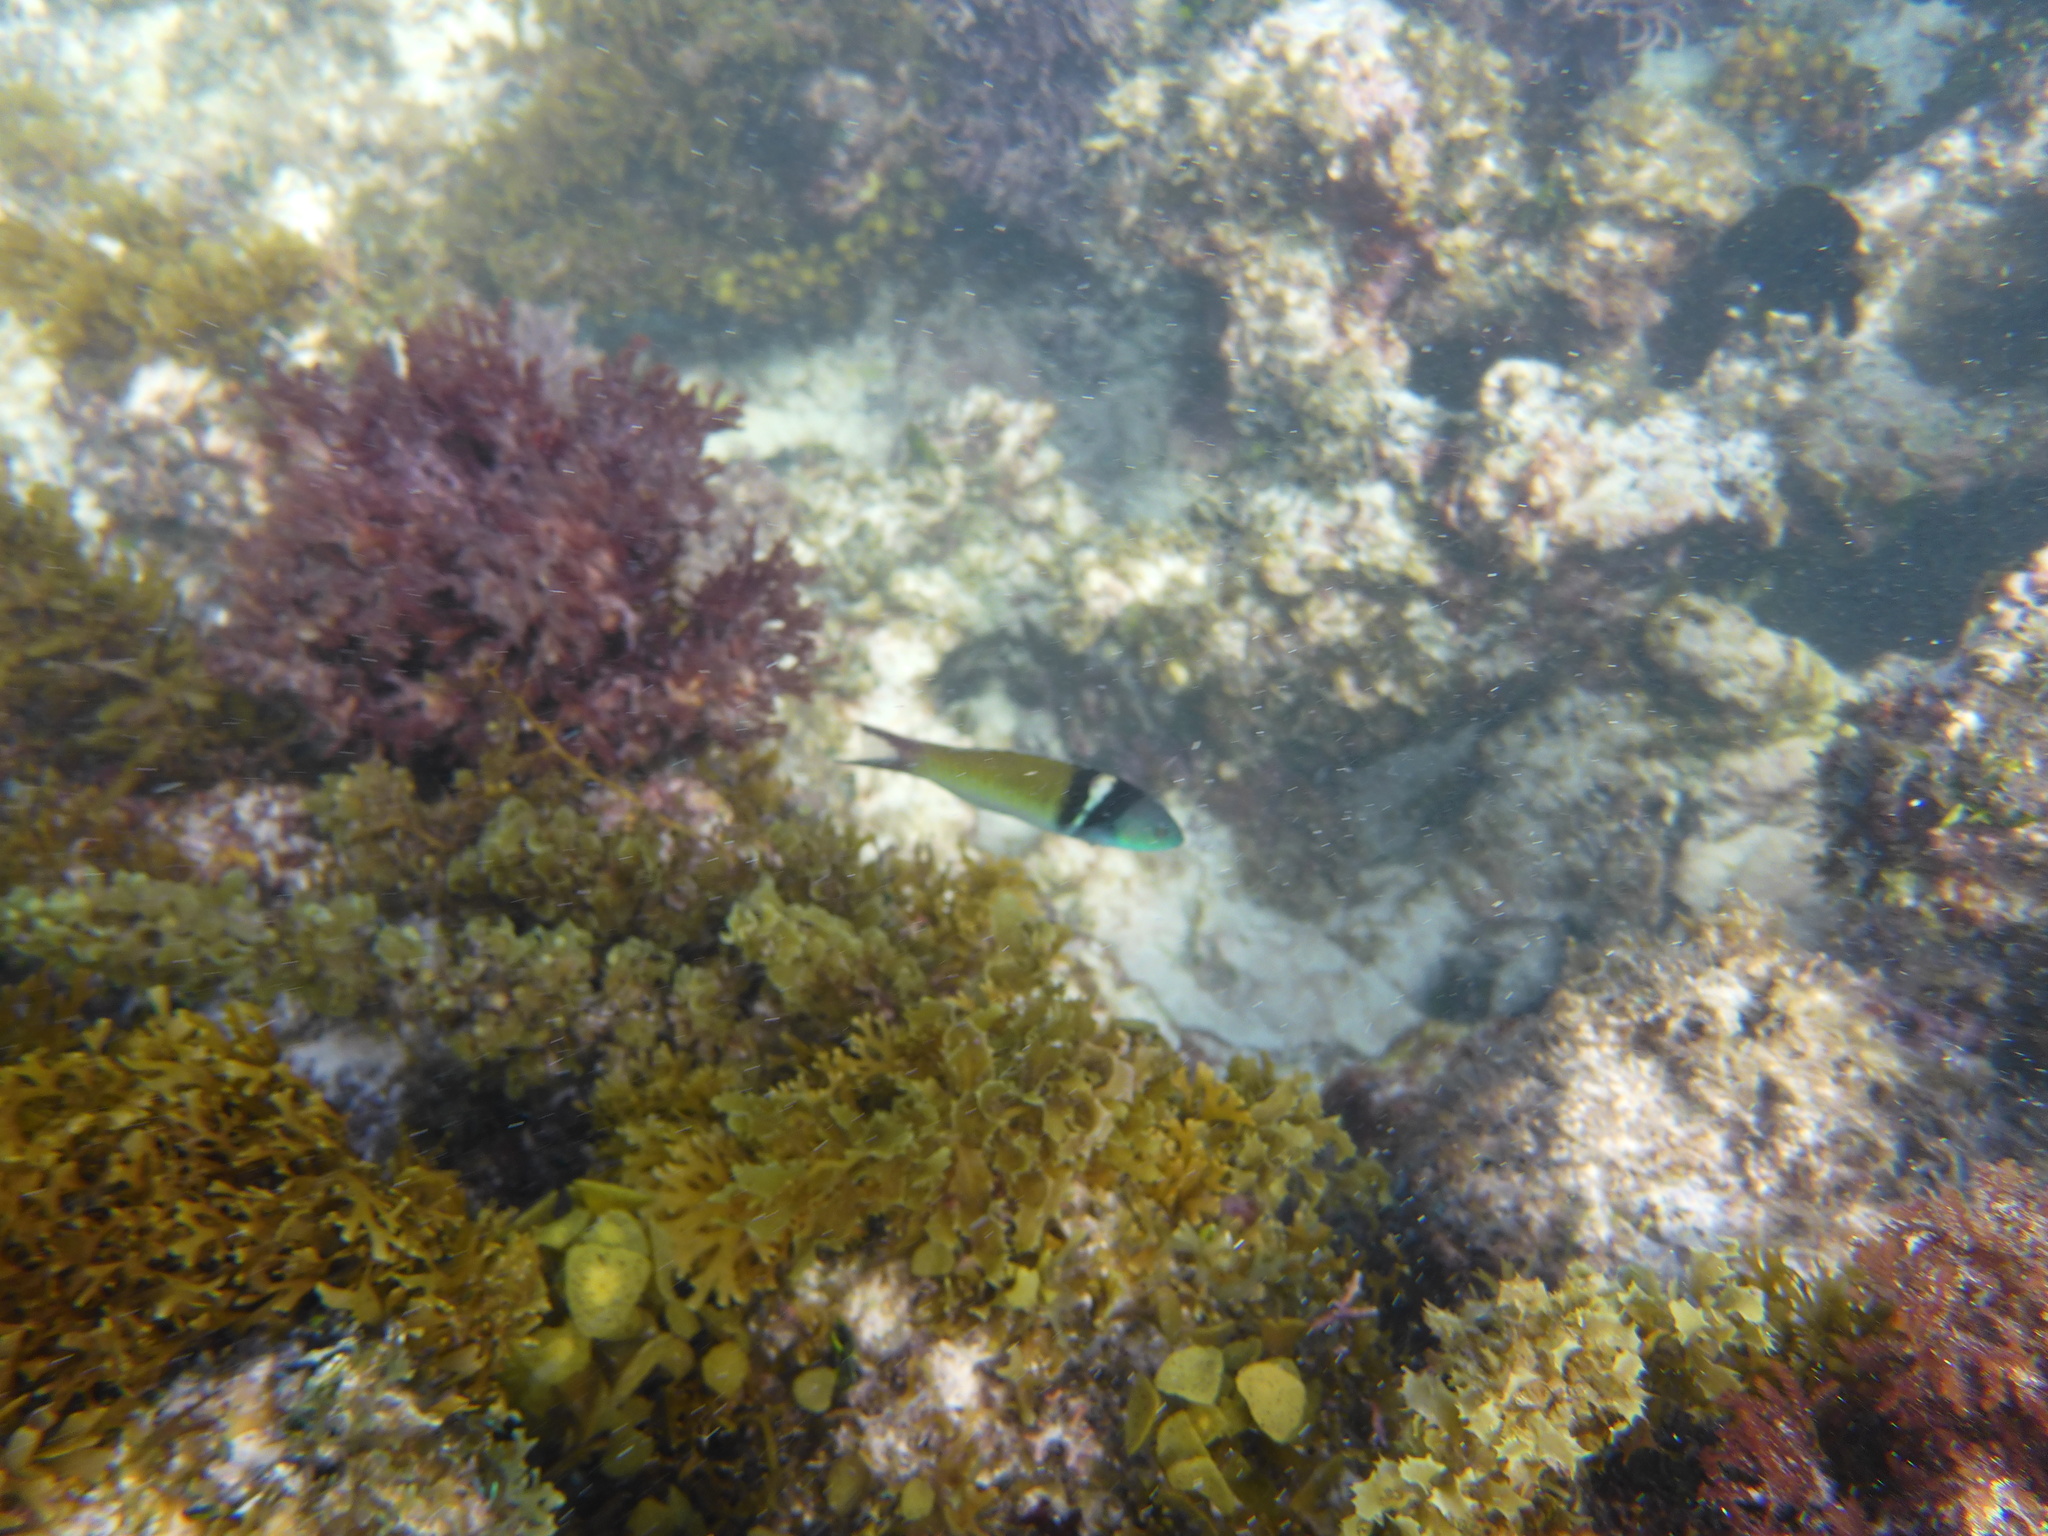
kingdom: Animalia
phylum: Chordata
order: Perciformes
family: Labridae
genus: Thalassoma
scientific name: Thalassoma bifasciatum
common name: Bluehead wrasse
